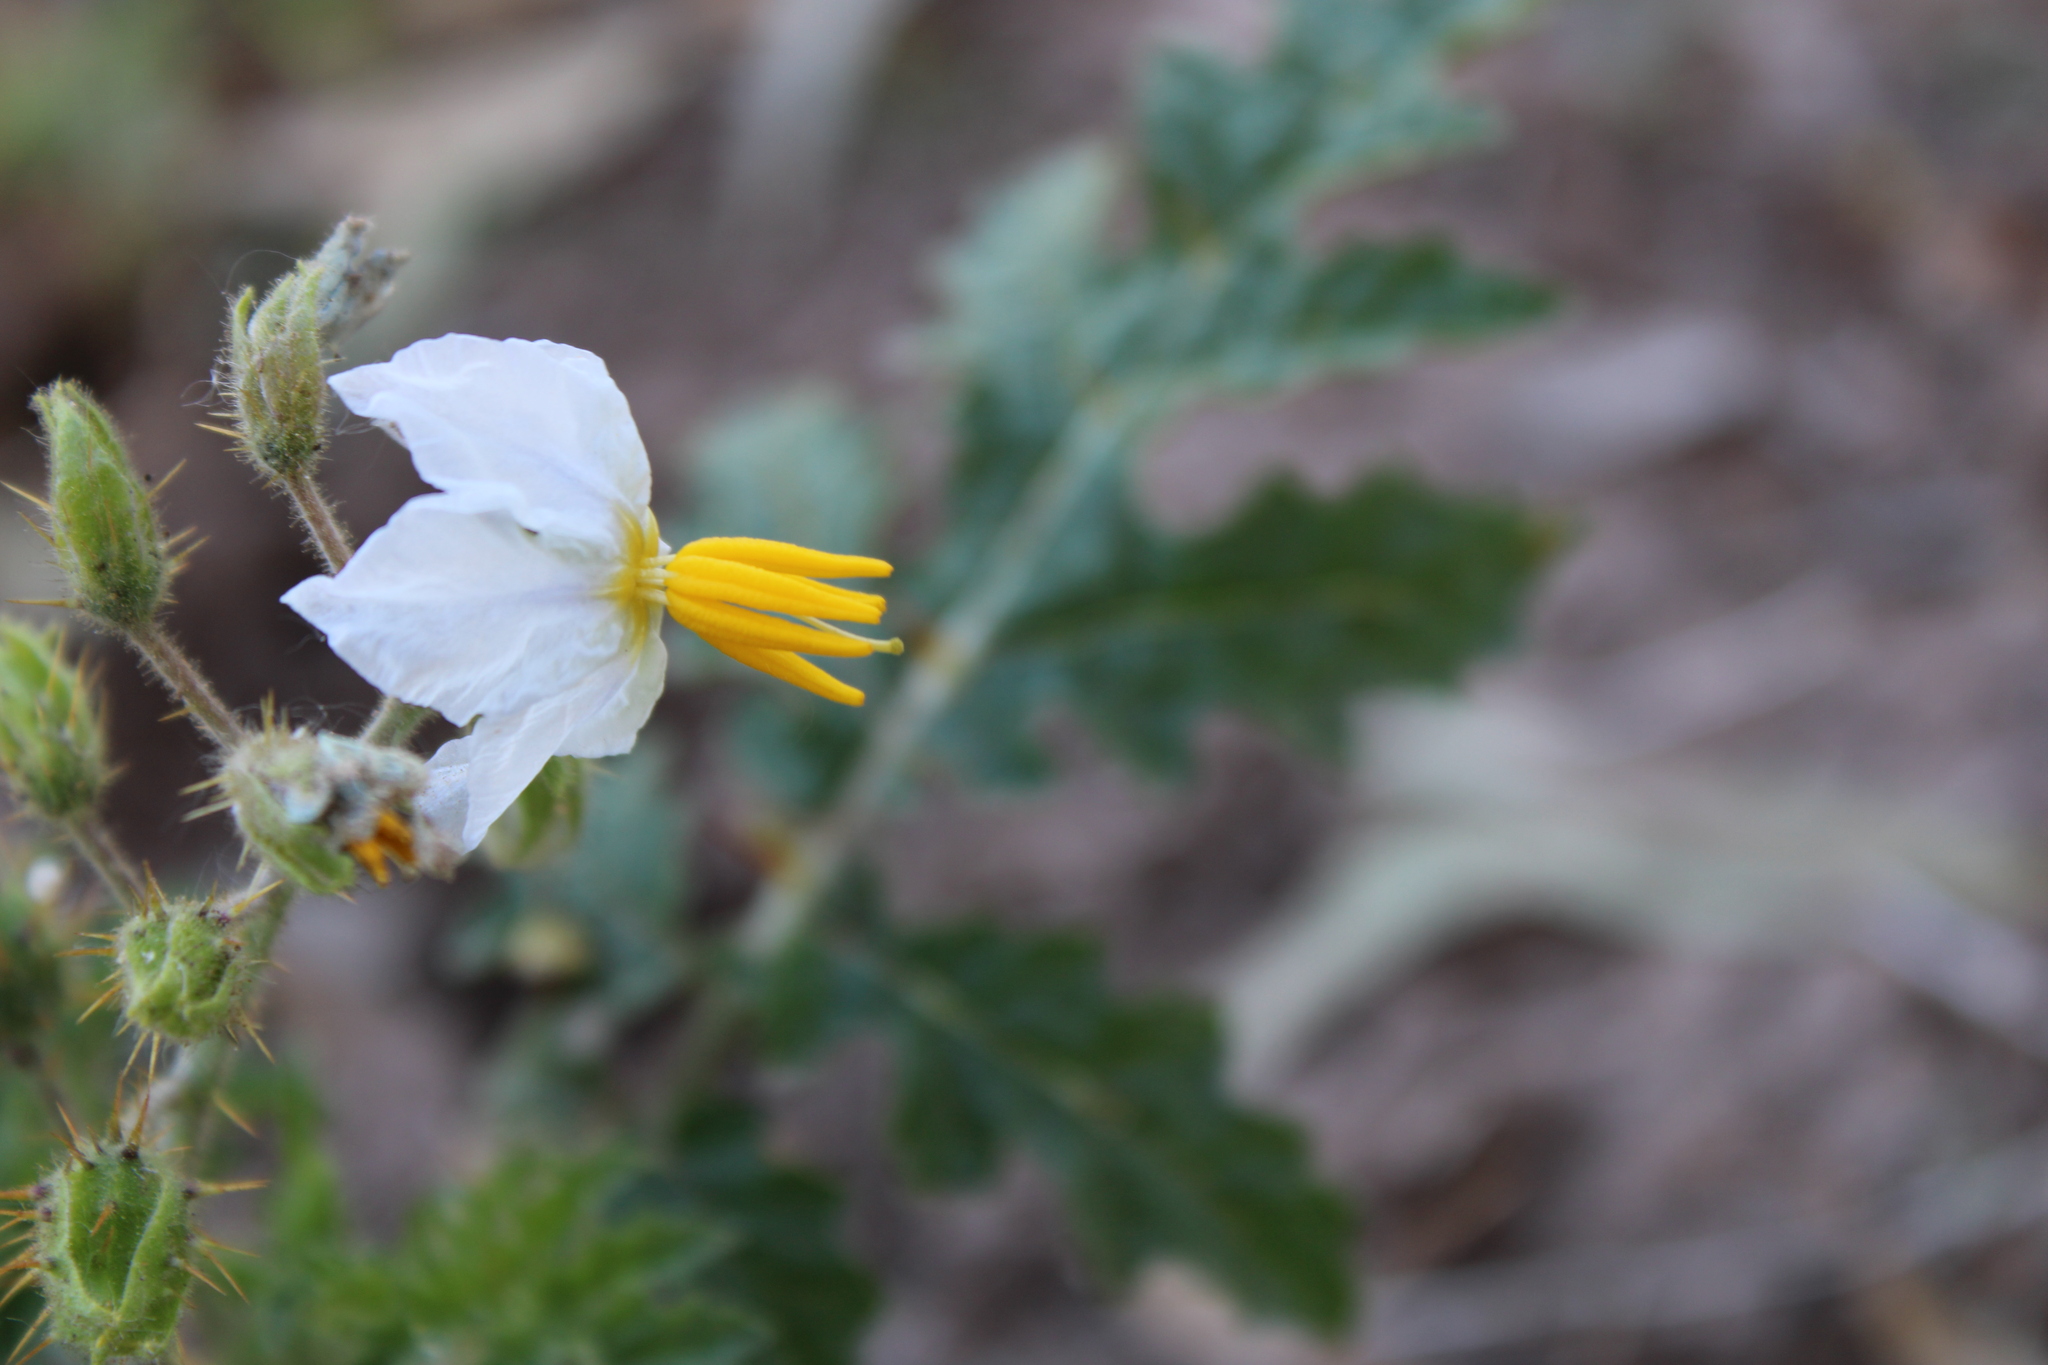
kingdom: Plantae
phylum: Tracheophyta
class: Magnoliopsida
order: Solanales
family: Solanaceae
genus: Solanum
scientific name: Solanum sisymbriifolium
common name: Red buffalo-bur
